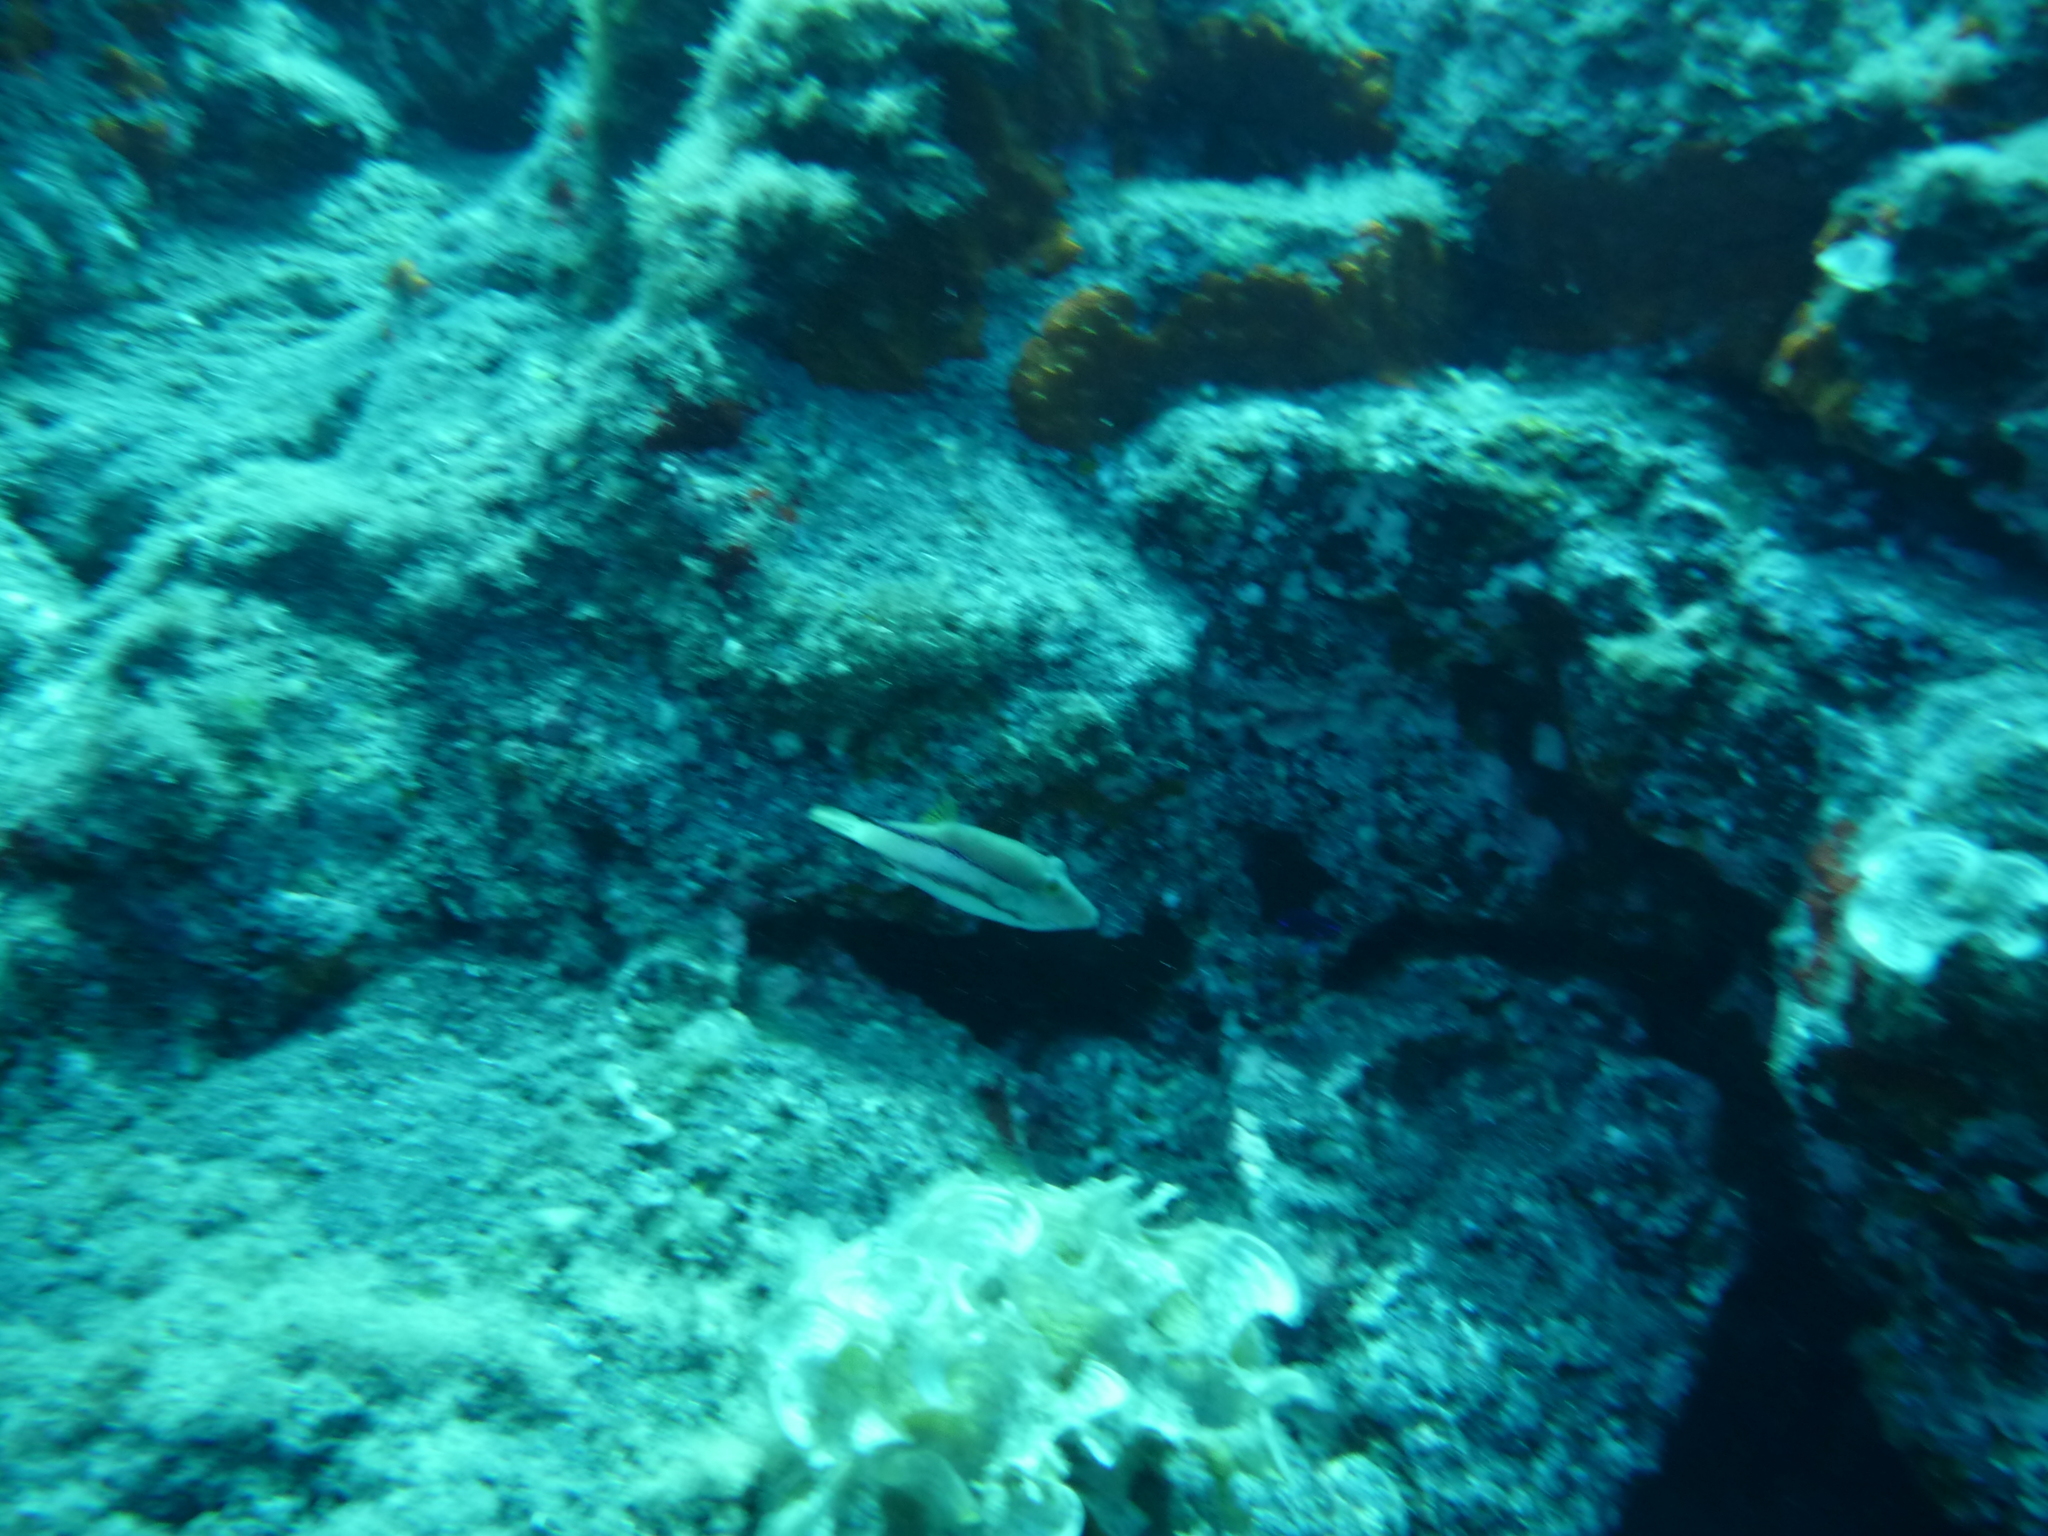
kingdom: Animalia
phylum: Chordata
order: Tetraodontiformes
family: Tetraodontidae
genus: Canthigaster
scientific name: Canthigaster capistrata
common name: Macaronesian sharpnose-puffer
